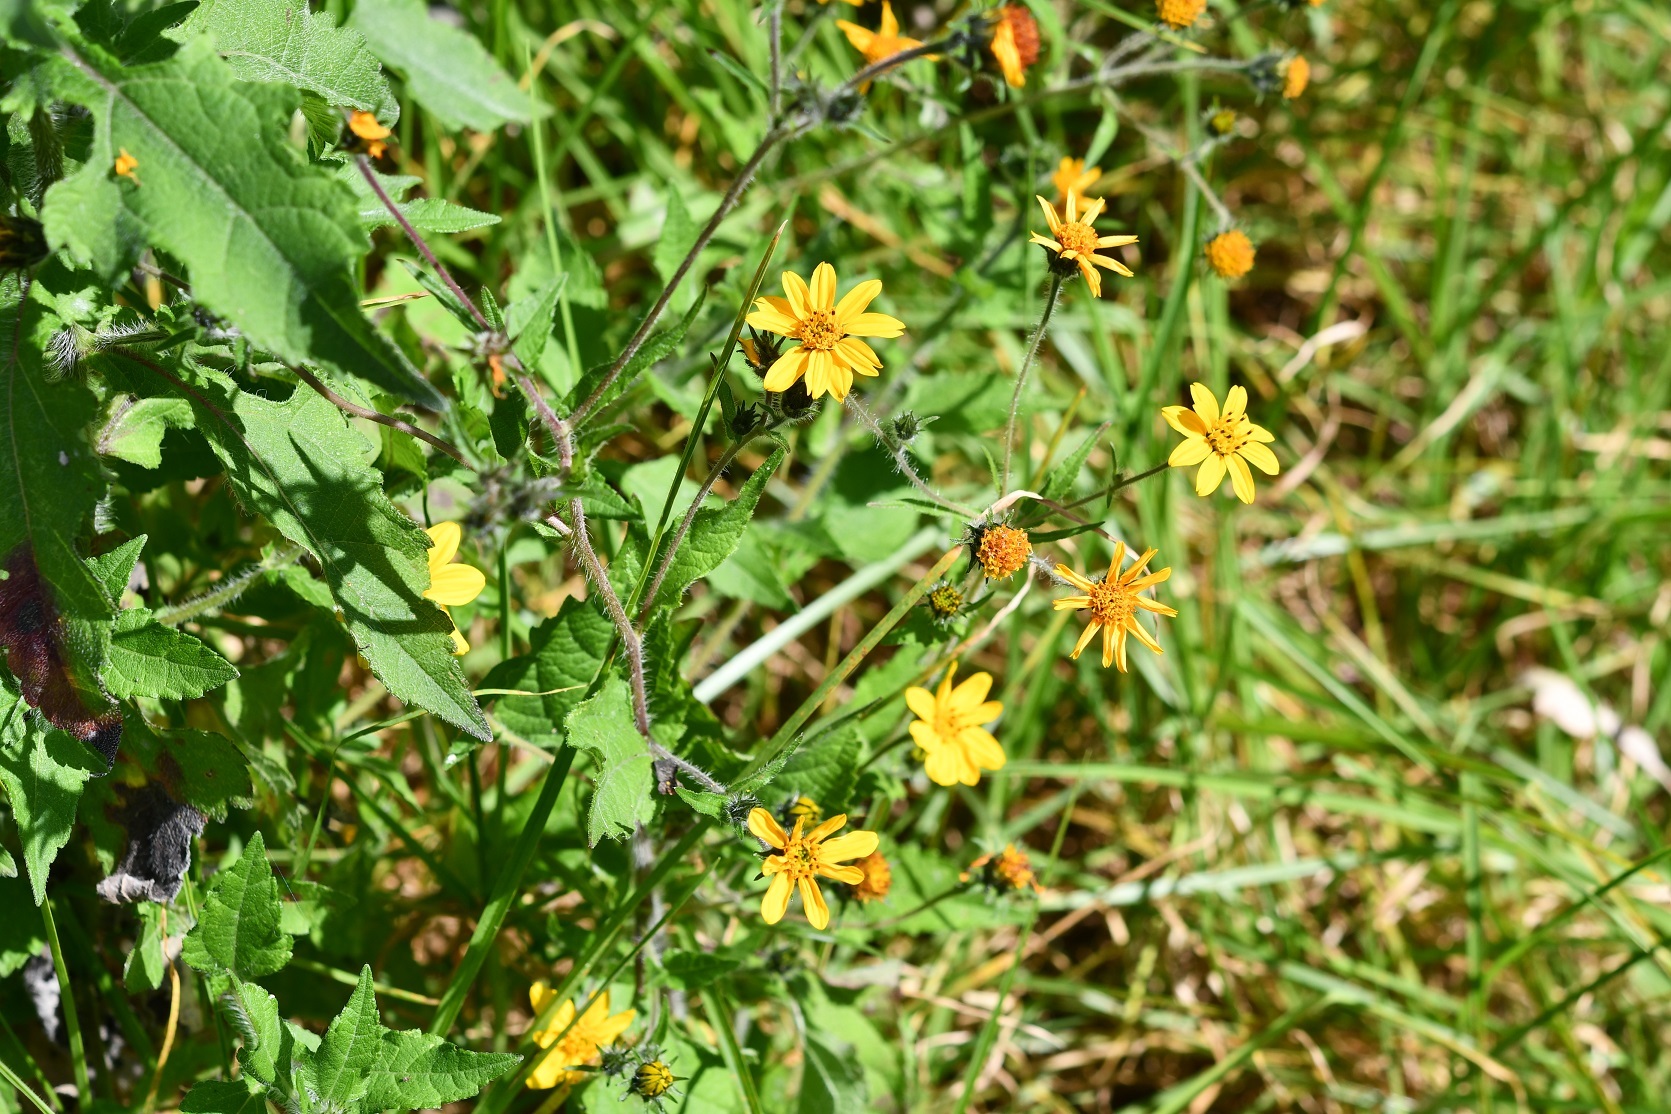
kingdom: Plantae
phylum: Tracheophyta
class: Magnoliopsida
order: Asterales
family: Asteraceae
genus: Simsia
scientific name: Simsia amplexicaulis
